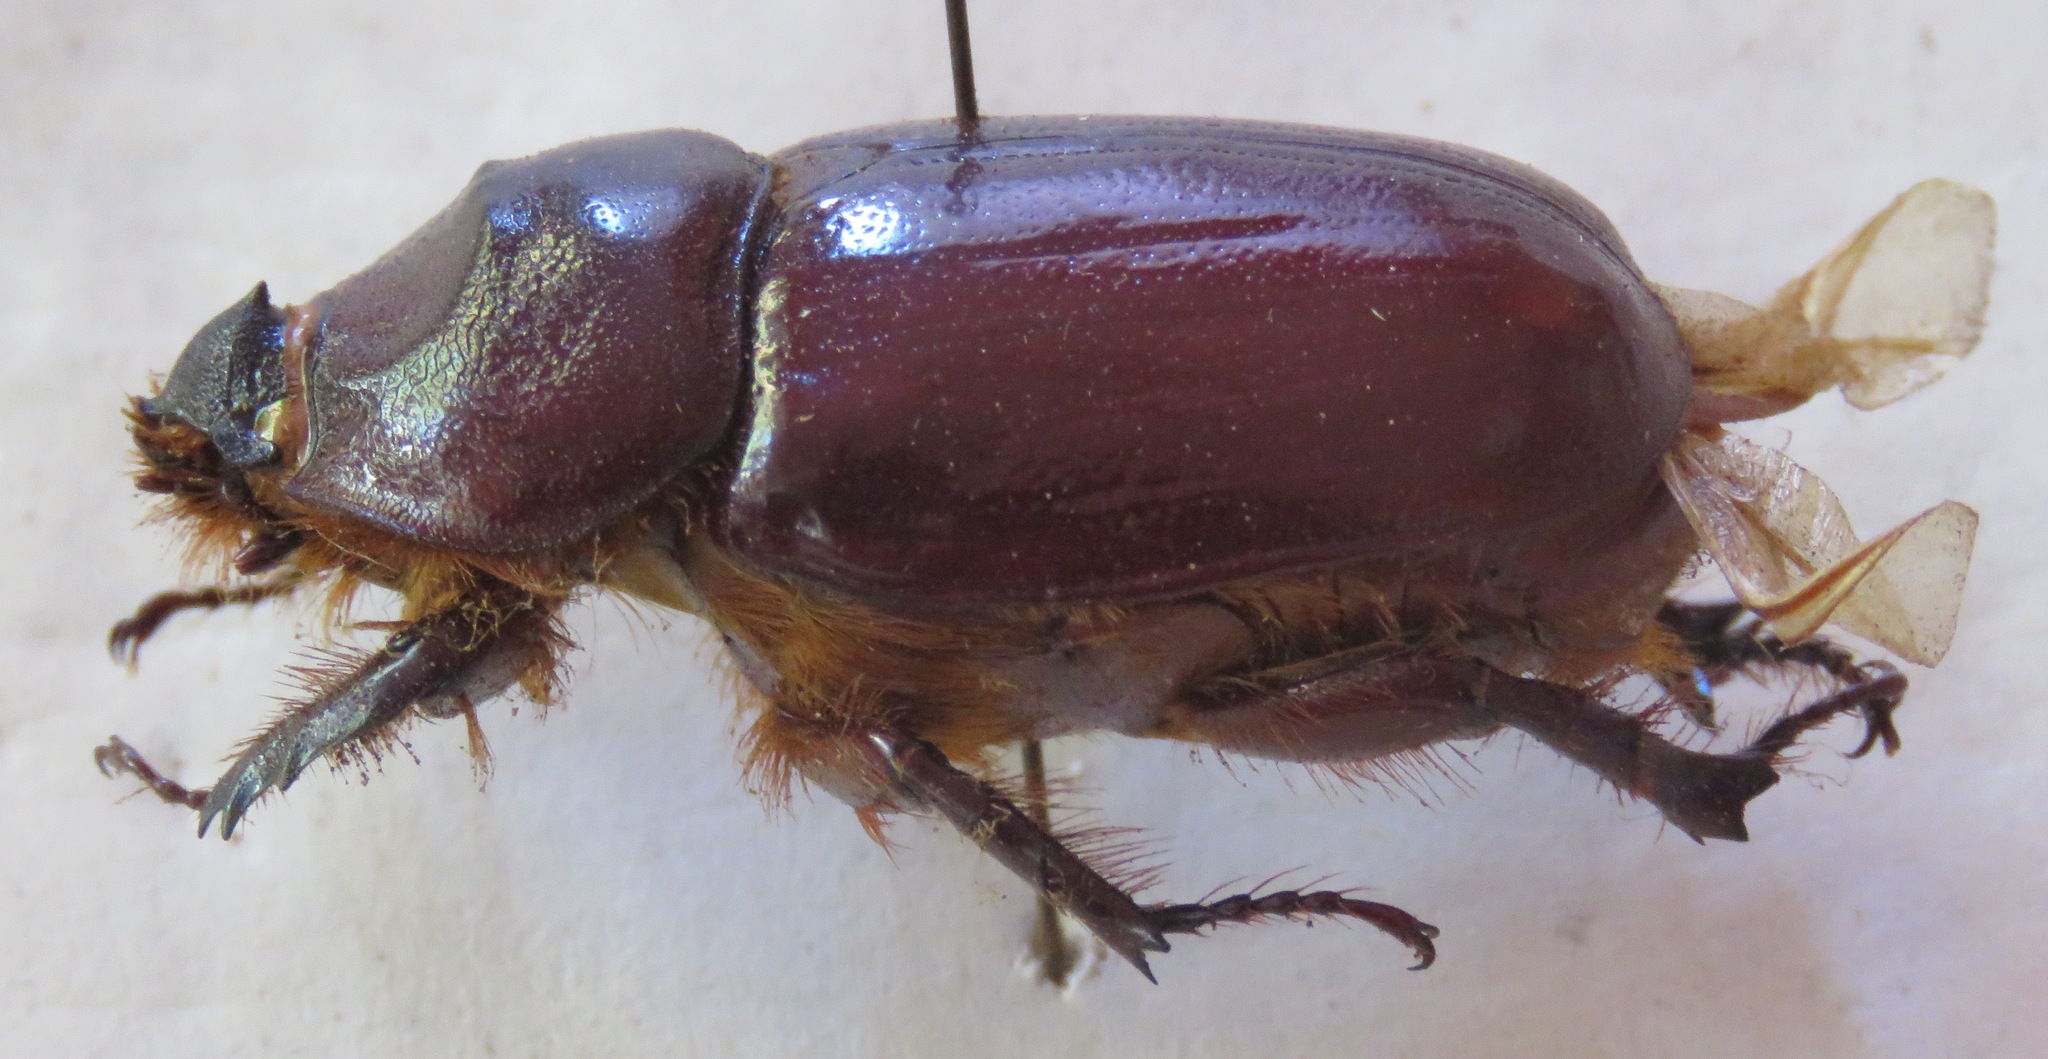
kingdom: Animalia
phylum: Arthropoda
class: Insecta
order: Coleoptera
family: Scarabaeidae
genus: Oryctes
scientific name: Oryctes nasicornis
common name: European rhinoceros beetle
